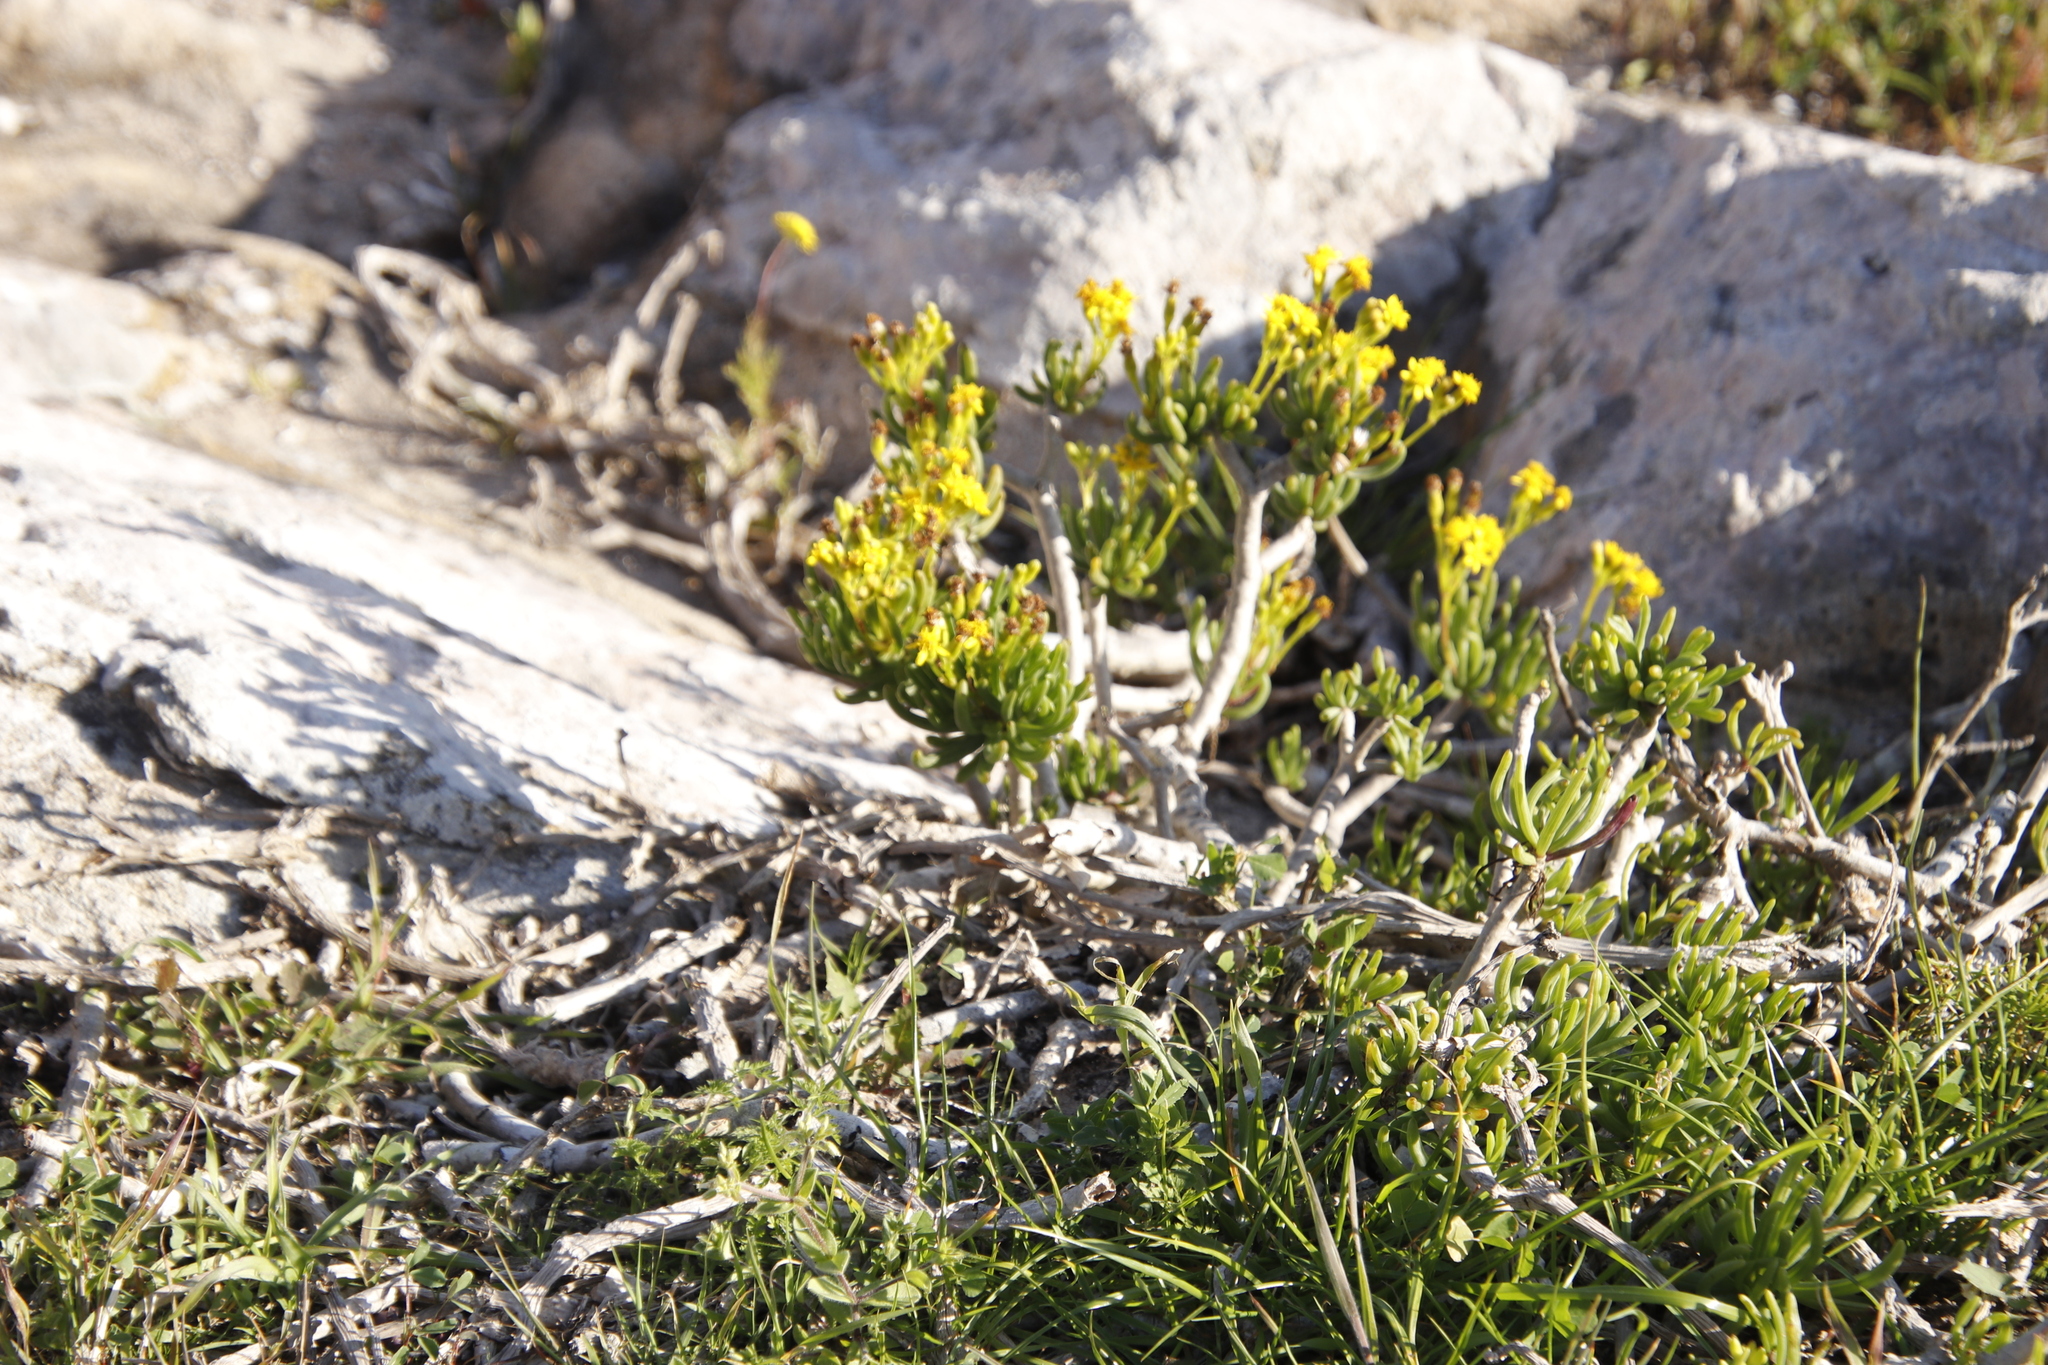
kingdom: Plantae
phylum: Tracheophyta
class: Magnoliopsida
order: Asterales
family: Asteraceae
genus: Curio
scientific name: Curio corymbifer
